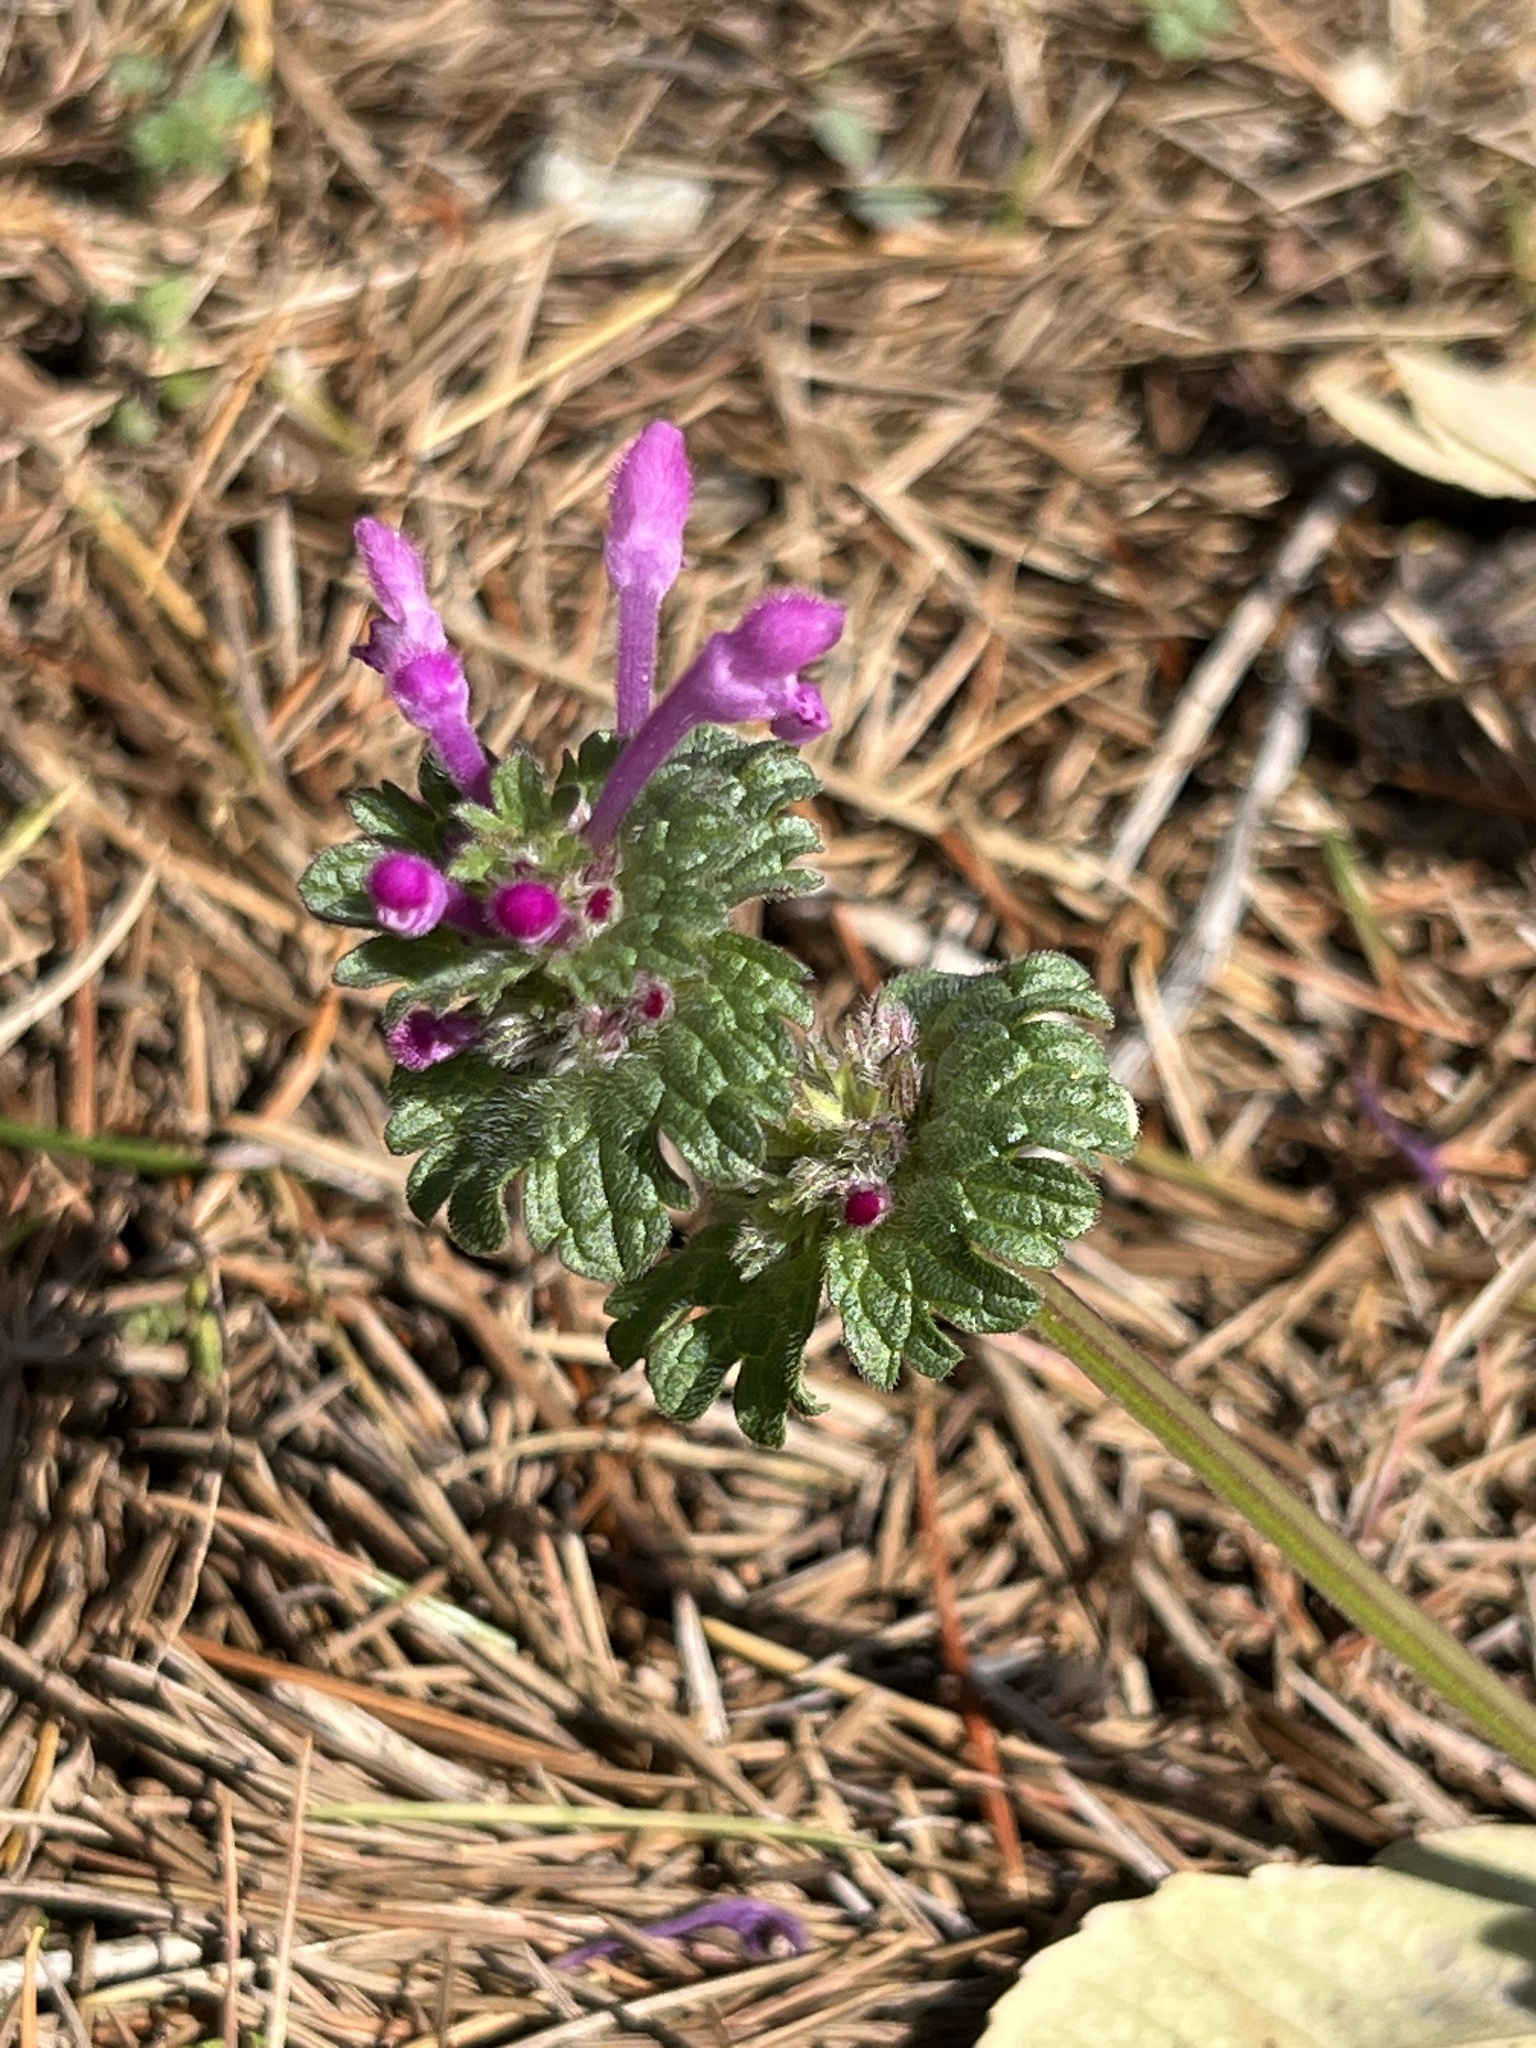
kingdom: Plantae
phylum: Tracheophyta
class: Magnoliopsida
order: Lamiales
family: Lamiaceae
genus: Lamium
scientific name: Lamium amplexicaule
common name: Henbit dead-nettle
